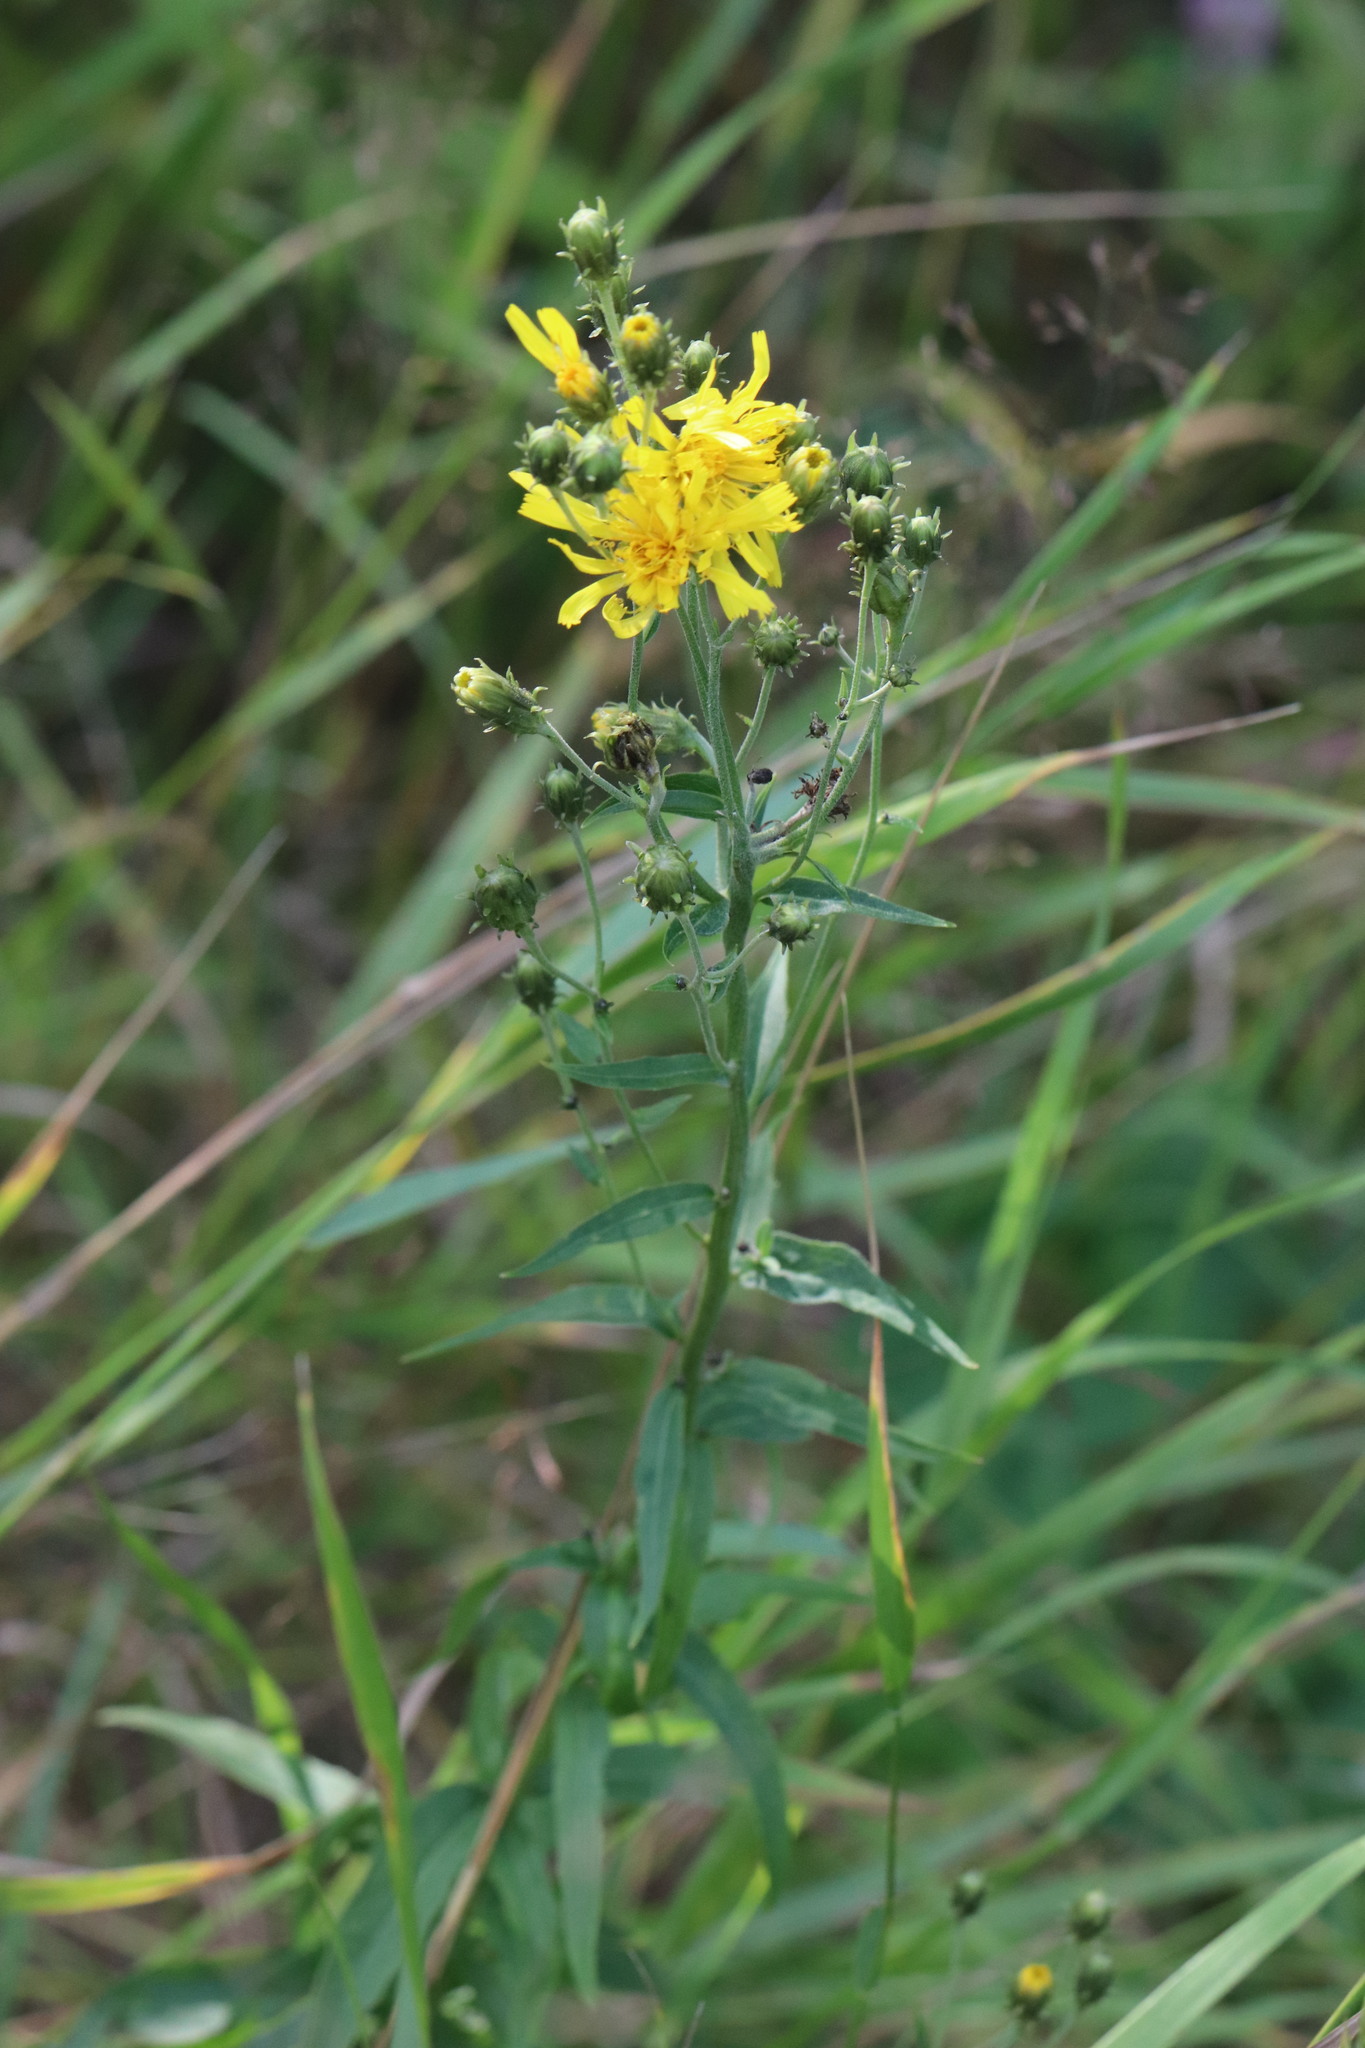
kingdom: Plantae
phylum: Tracheophyta
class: Magnoliopsida
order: Asterales
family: Asteraceae
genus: Hieracium
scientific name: Hieracium umbellatum
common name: Northern hawkweed
